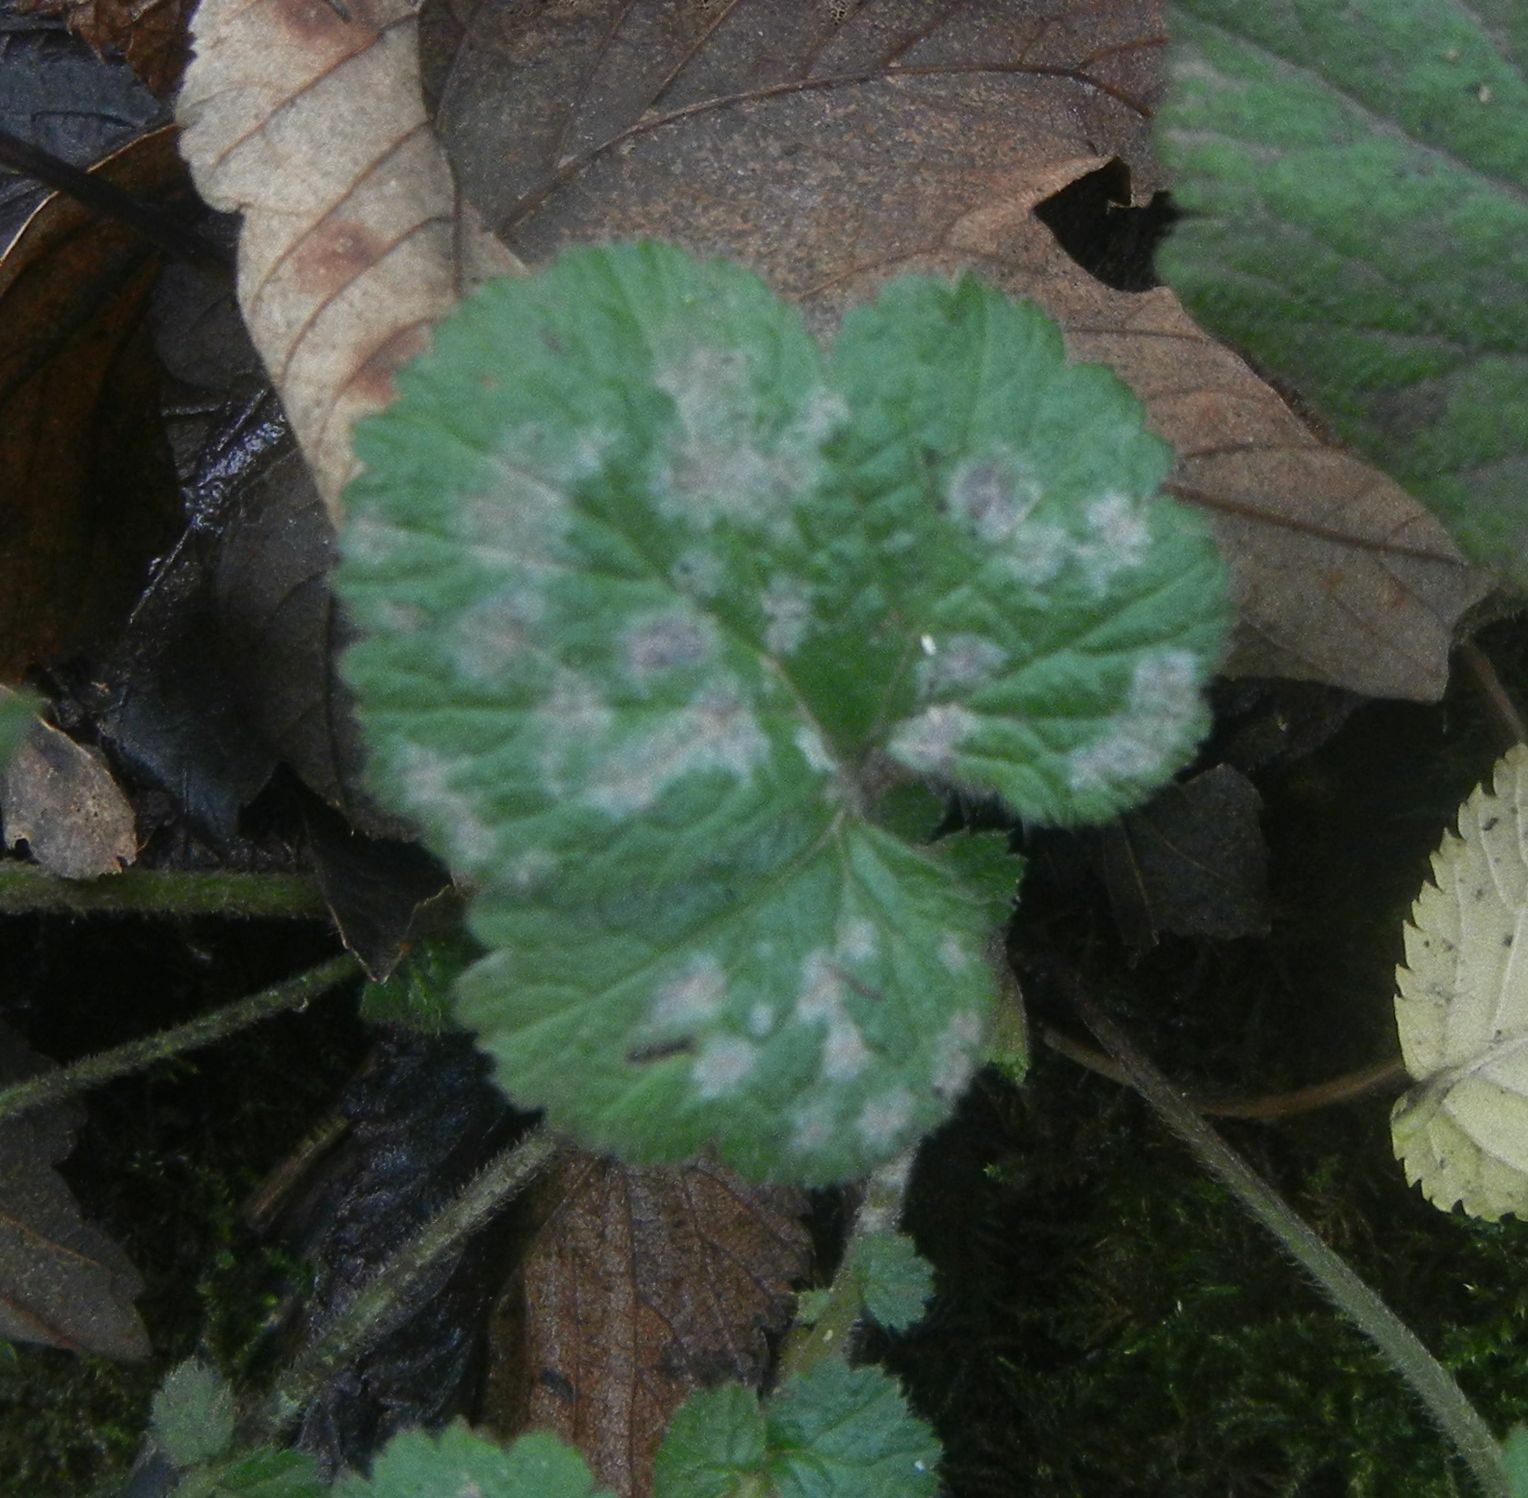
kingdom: Fungi
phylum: Ascomycota
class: Leotiomycetes
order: Helotiales
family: Erysiphaceae
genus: Podosphaera
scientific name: Podosphaera aphanis
